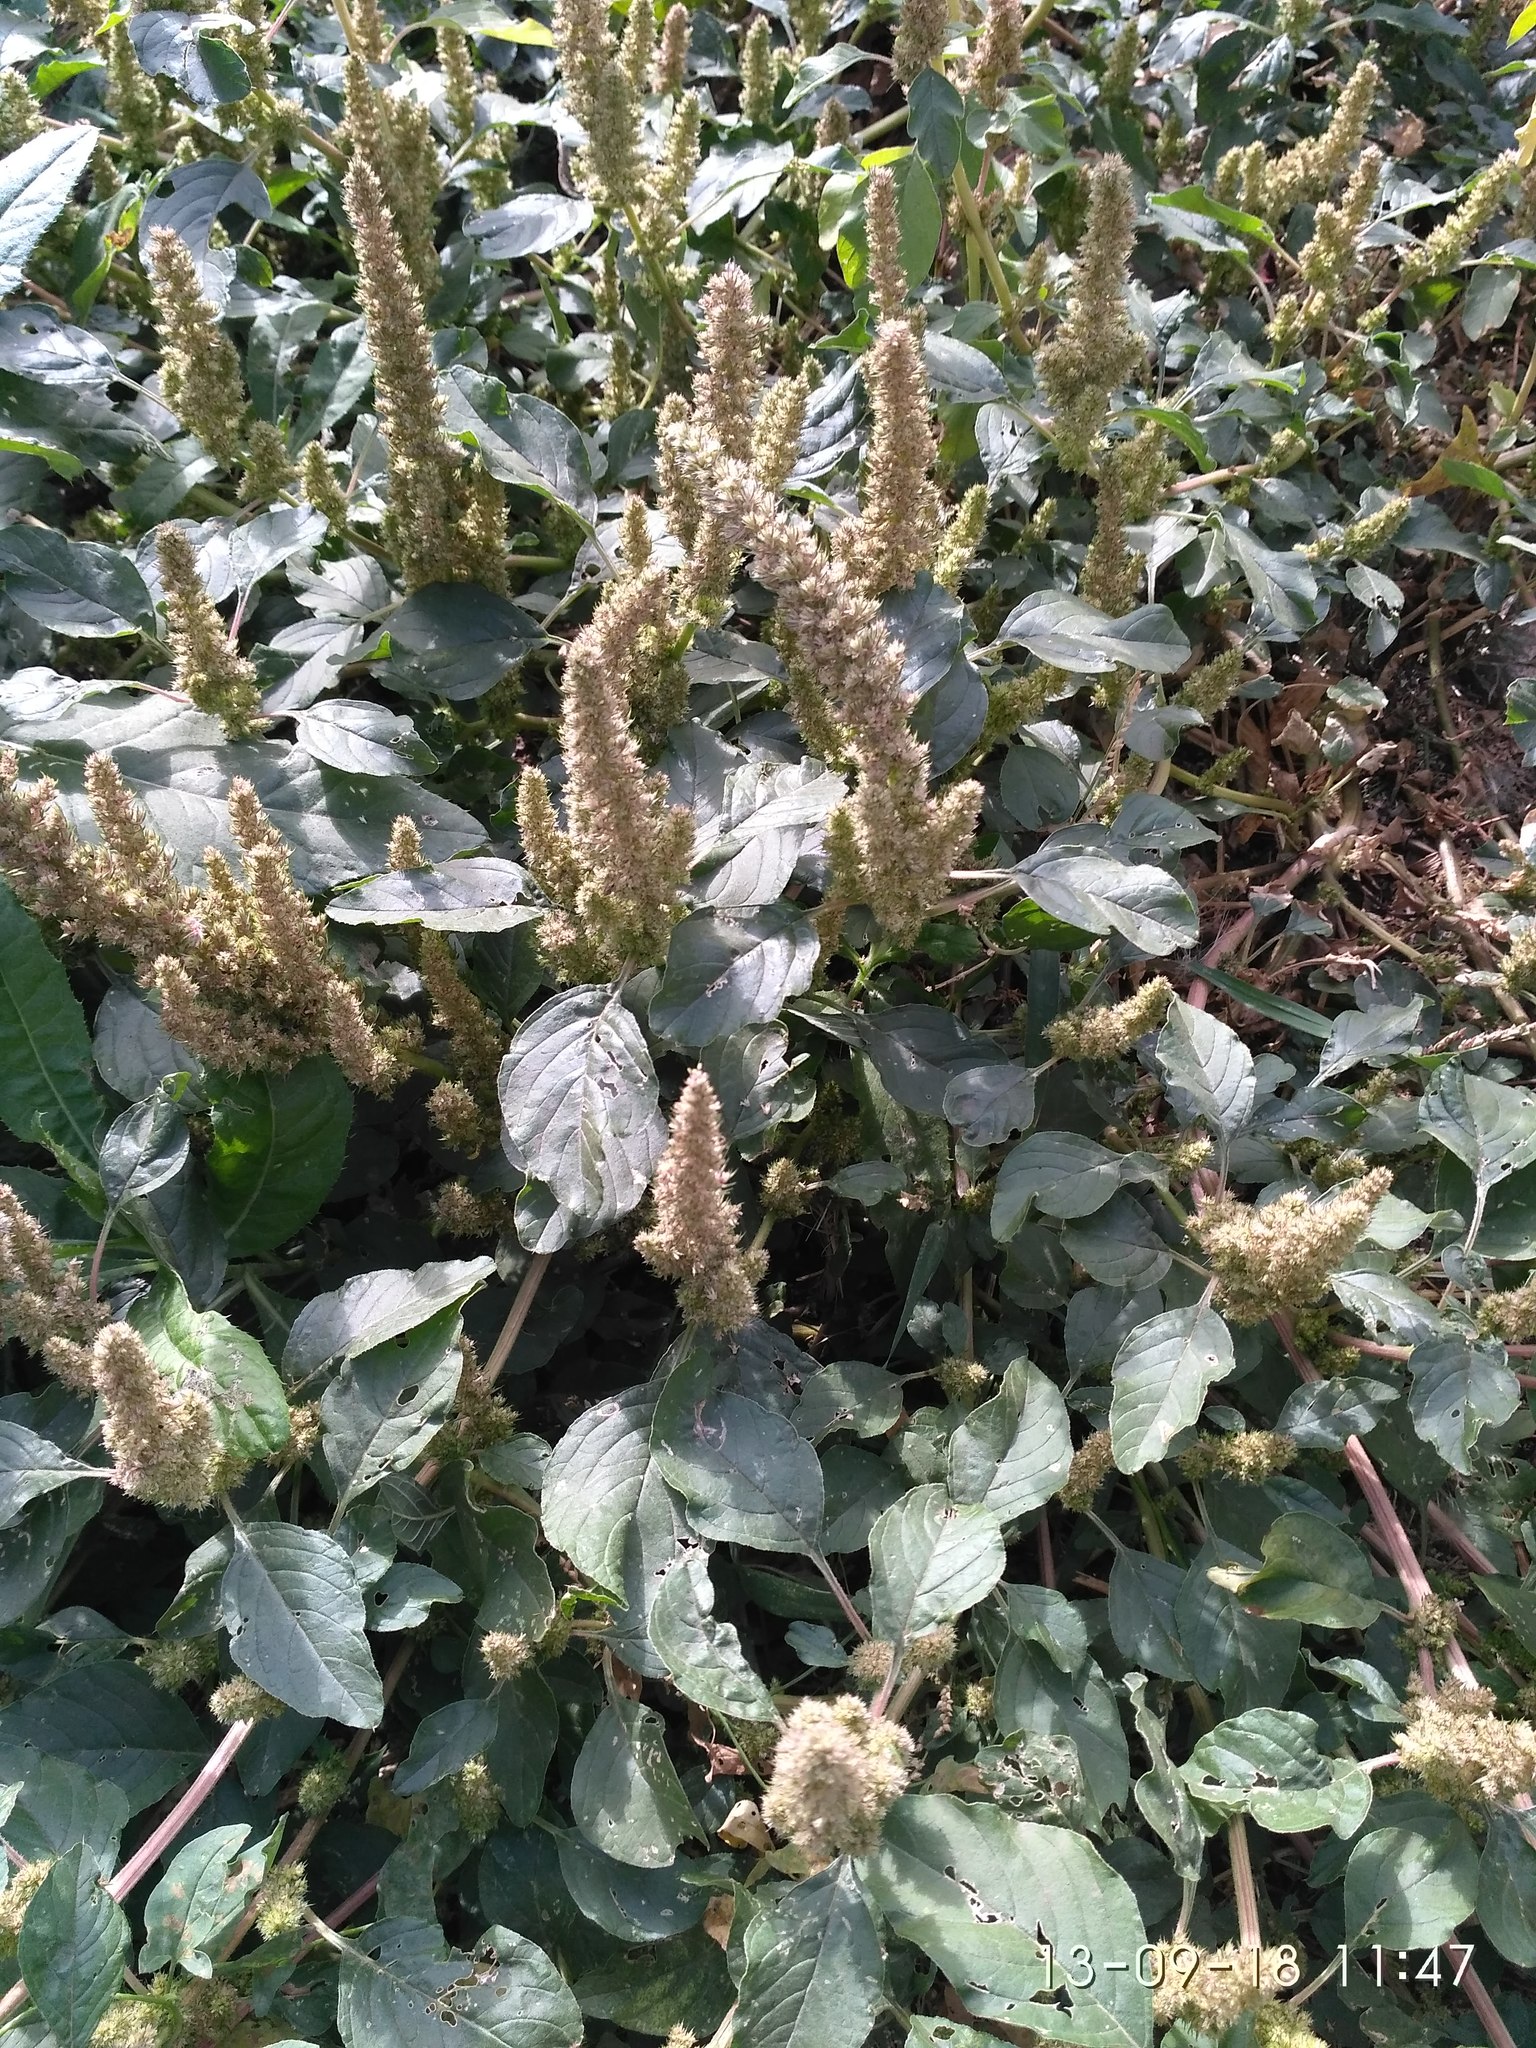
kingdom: Plantae
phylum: Tracheophyta
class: Magnoliopsida
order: Caryophyllales
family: Amaranthaceae
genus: Amaranthus
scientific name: Amaranthus retroflexus
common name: Redroot amaranth
